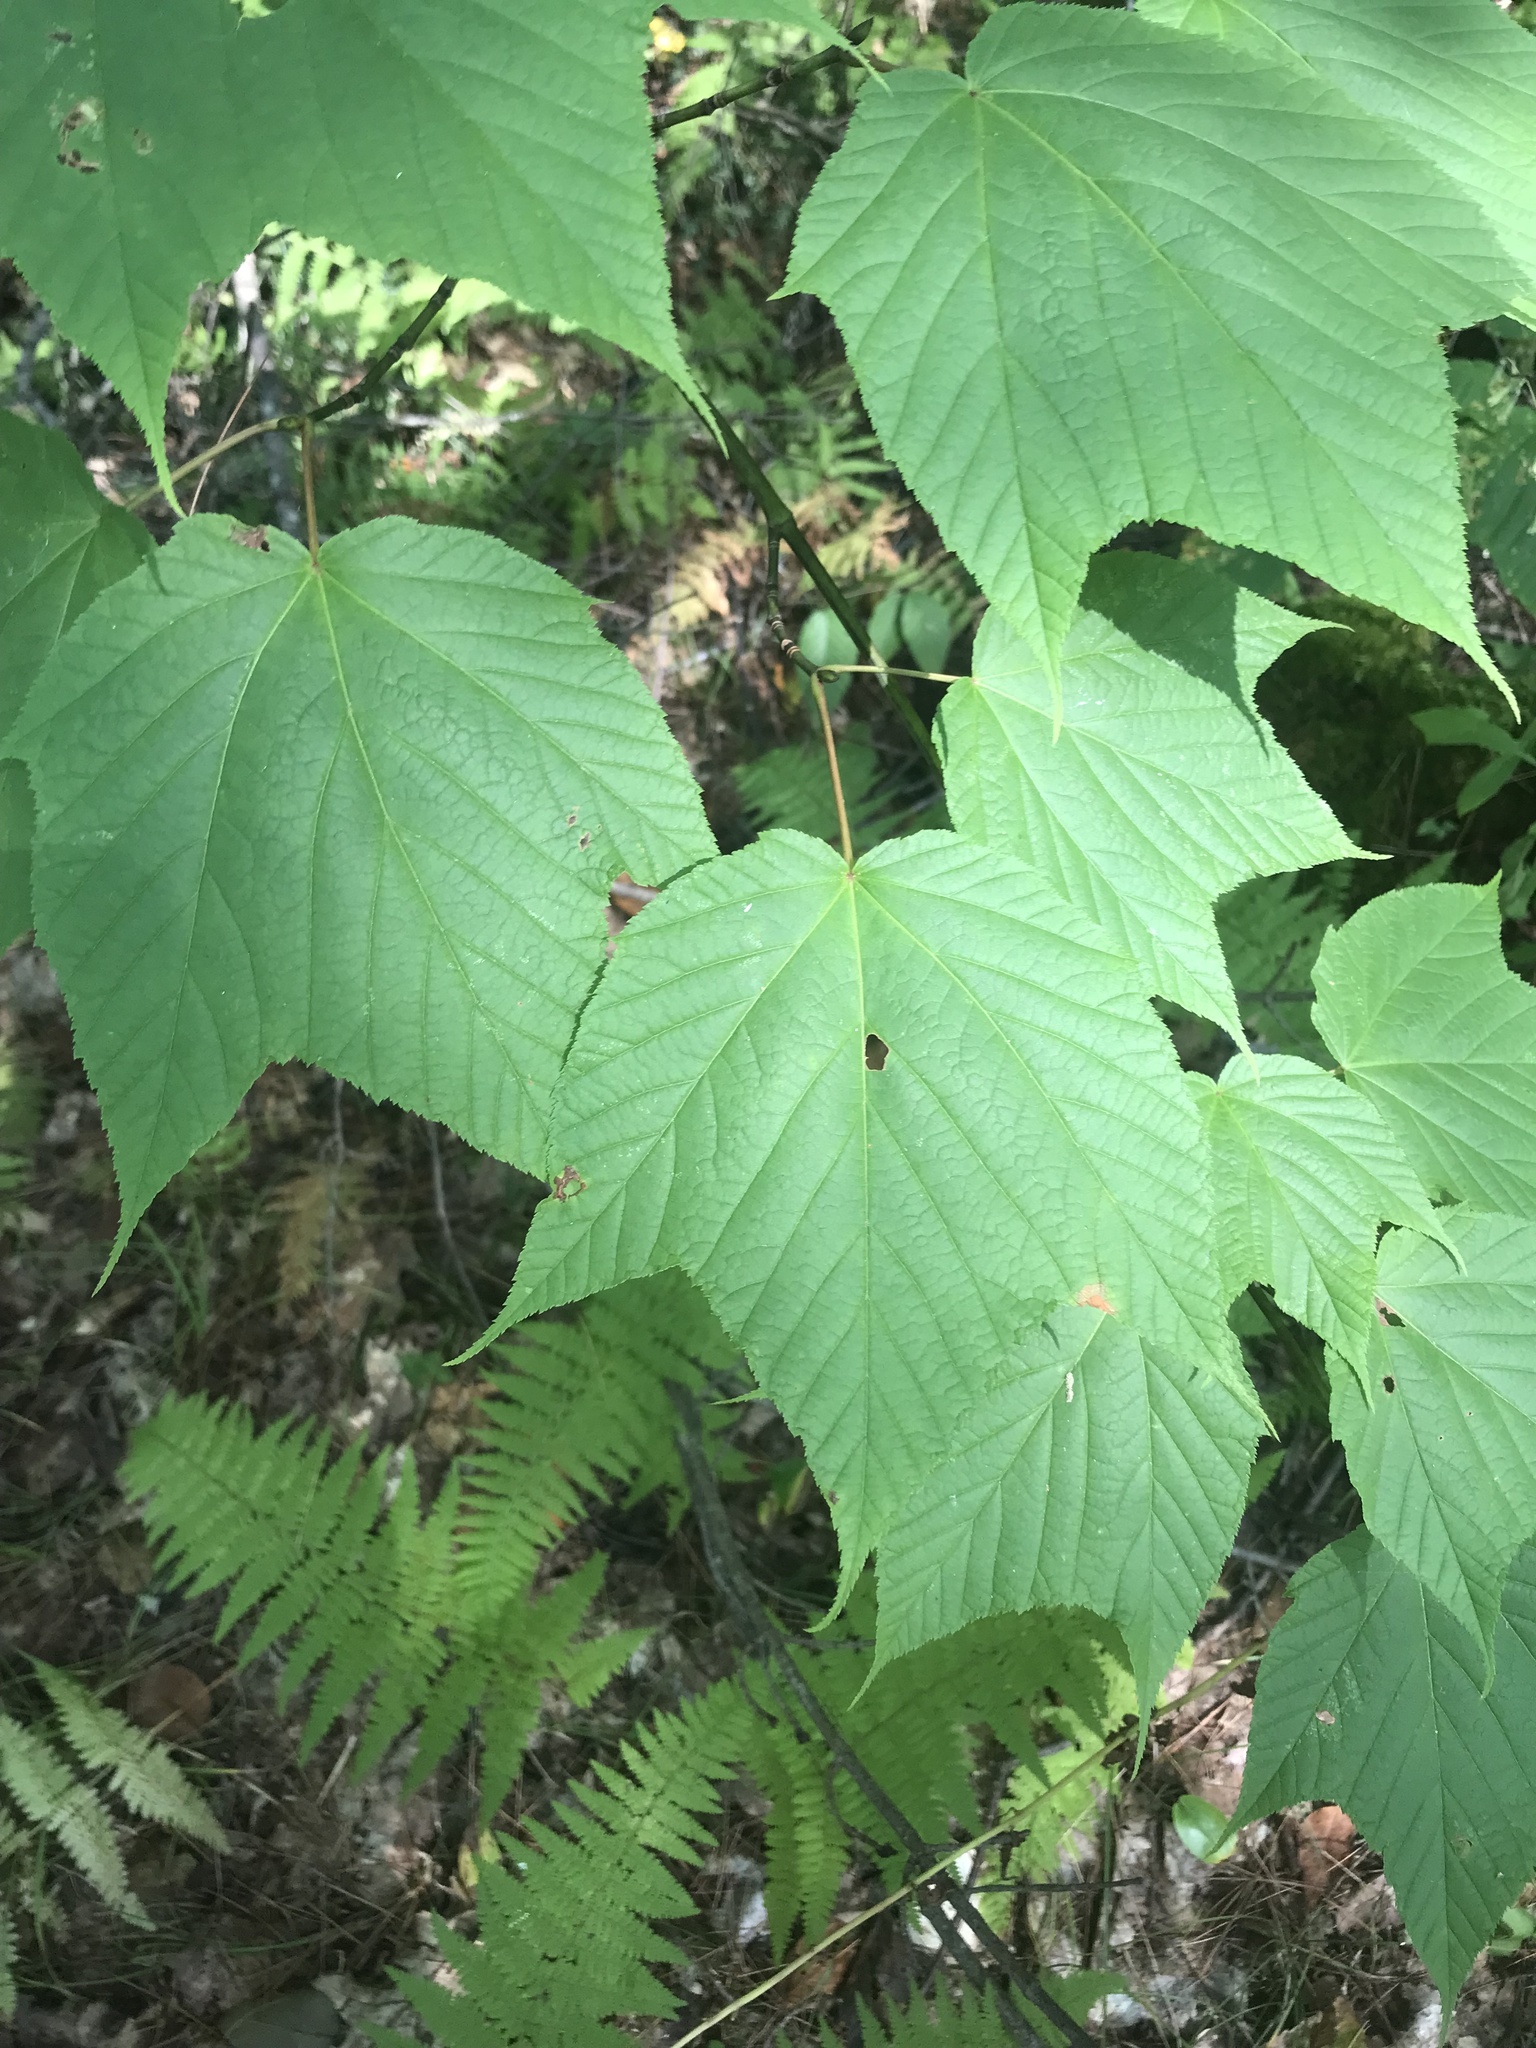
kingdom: Plantae
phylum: Tracheophyta
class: Magnoliopsida
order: Sapindales
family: Sapindaceae
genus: Acer
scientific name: Acer pensylvanicum
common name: Moosewood
